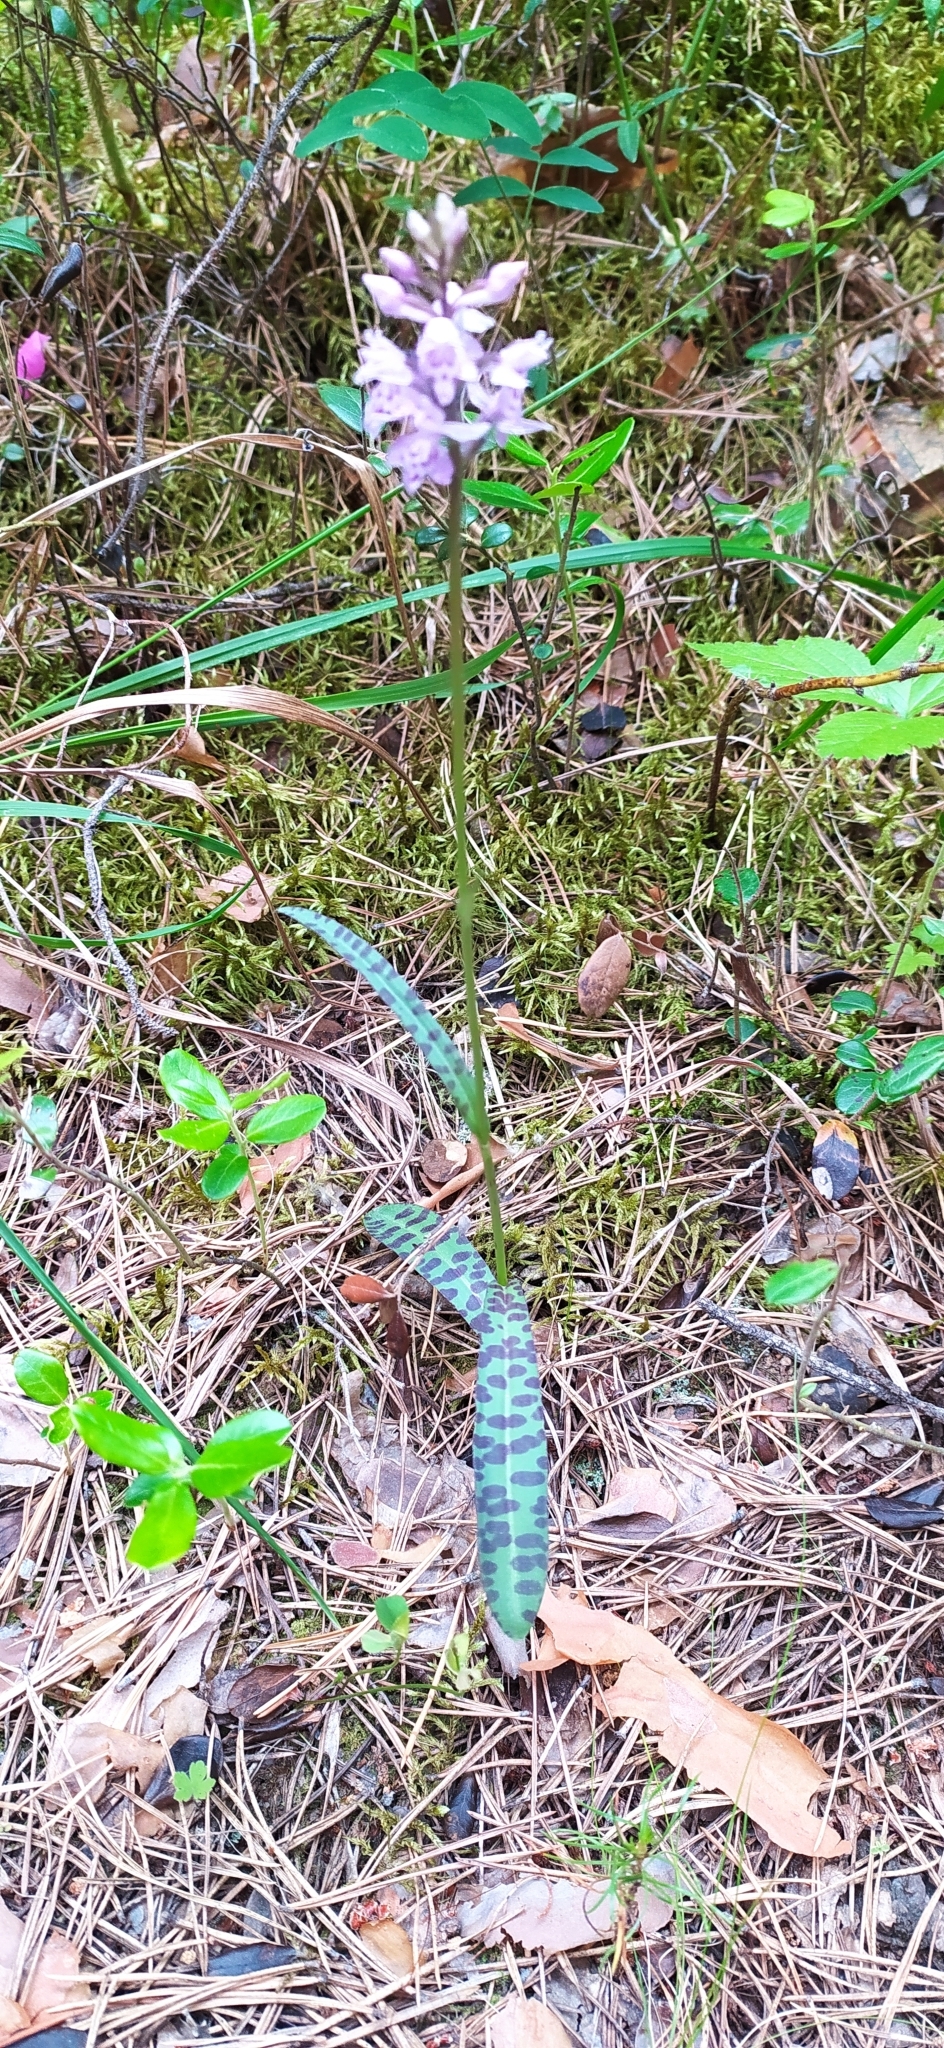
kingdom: Plantae
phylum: Tracheophyta
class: Liliopsida
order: Asparagales
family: Orchidaceae
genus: Dactylorhiza
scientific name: Dactylorhiza maculata
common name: Heath spotted-orchid
